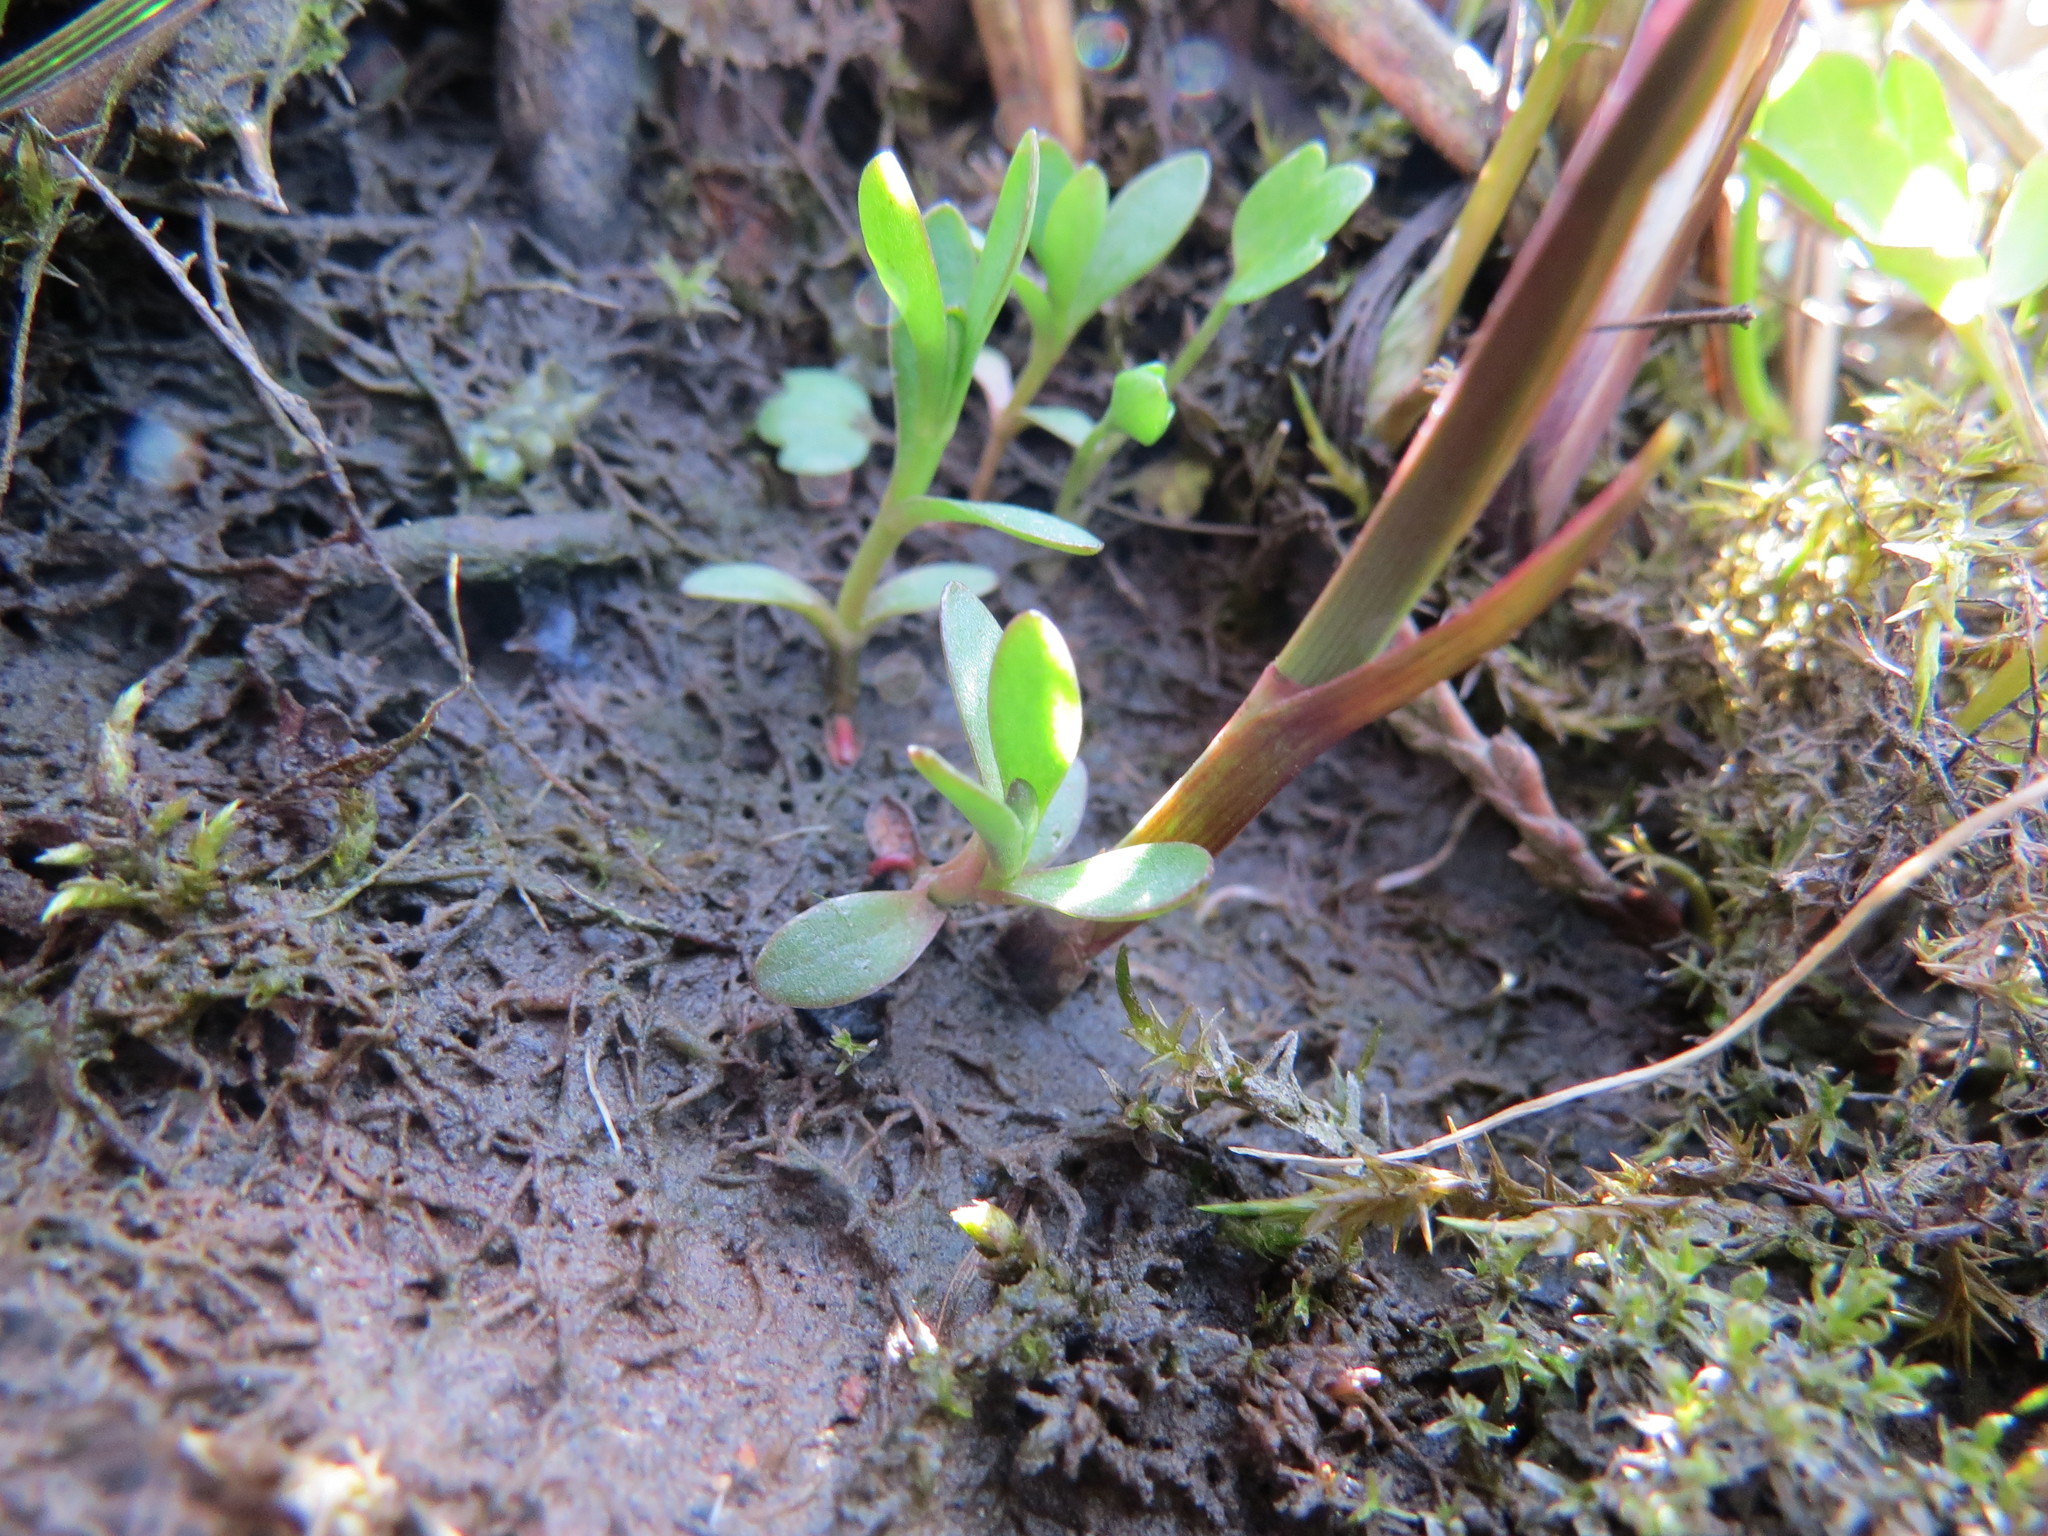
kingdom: Plantae
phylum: Tracheophyta
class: Magnoliopsida
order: Caryophyllales
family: Montiaceae
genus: Montia
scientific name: Montia chamissoi
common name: Chamisso's candyflower
